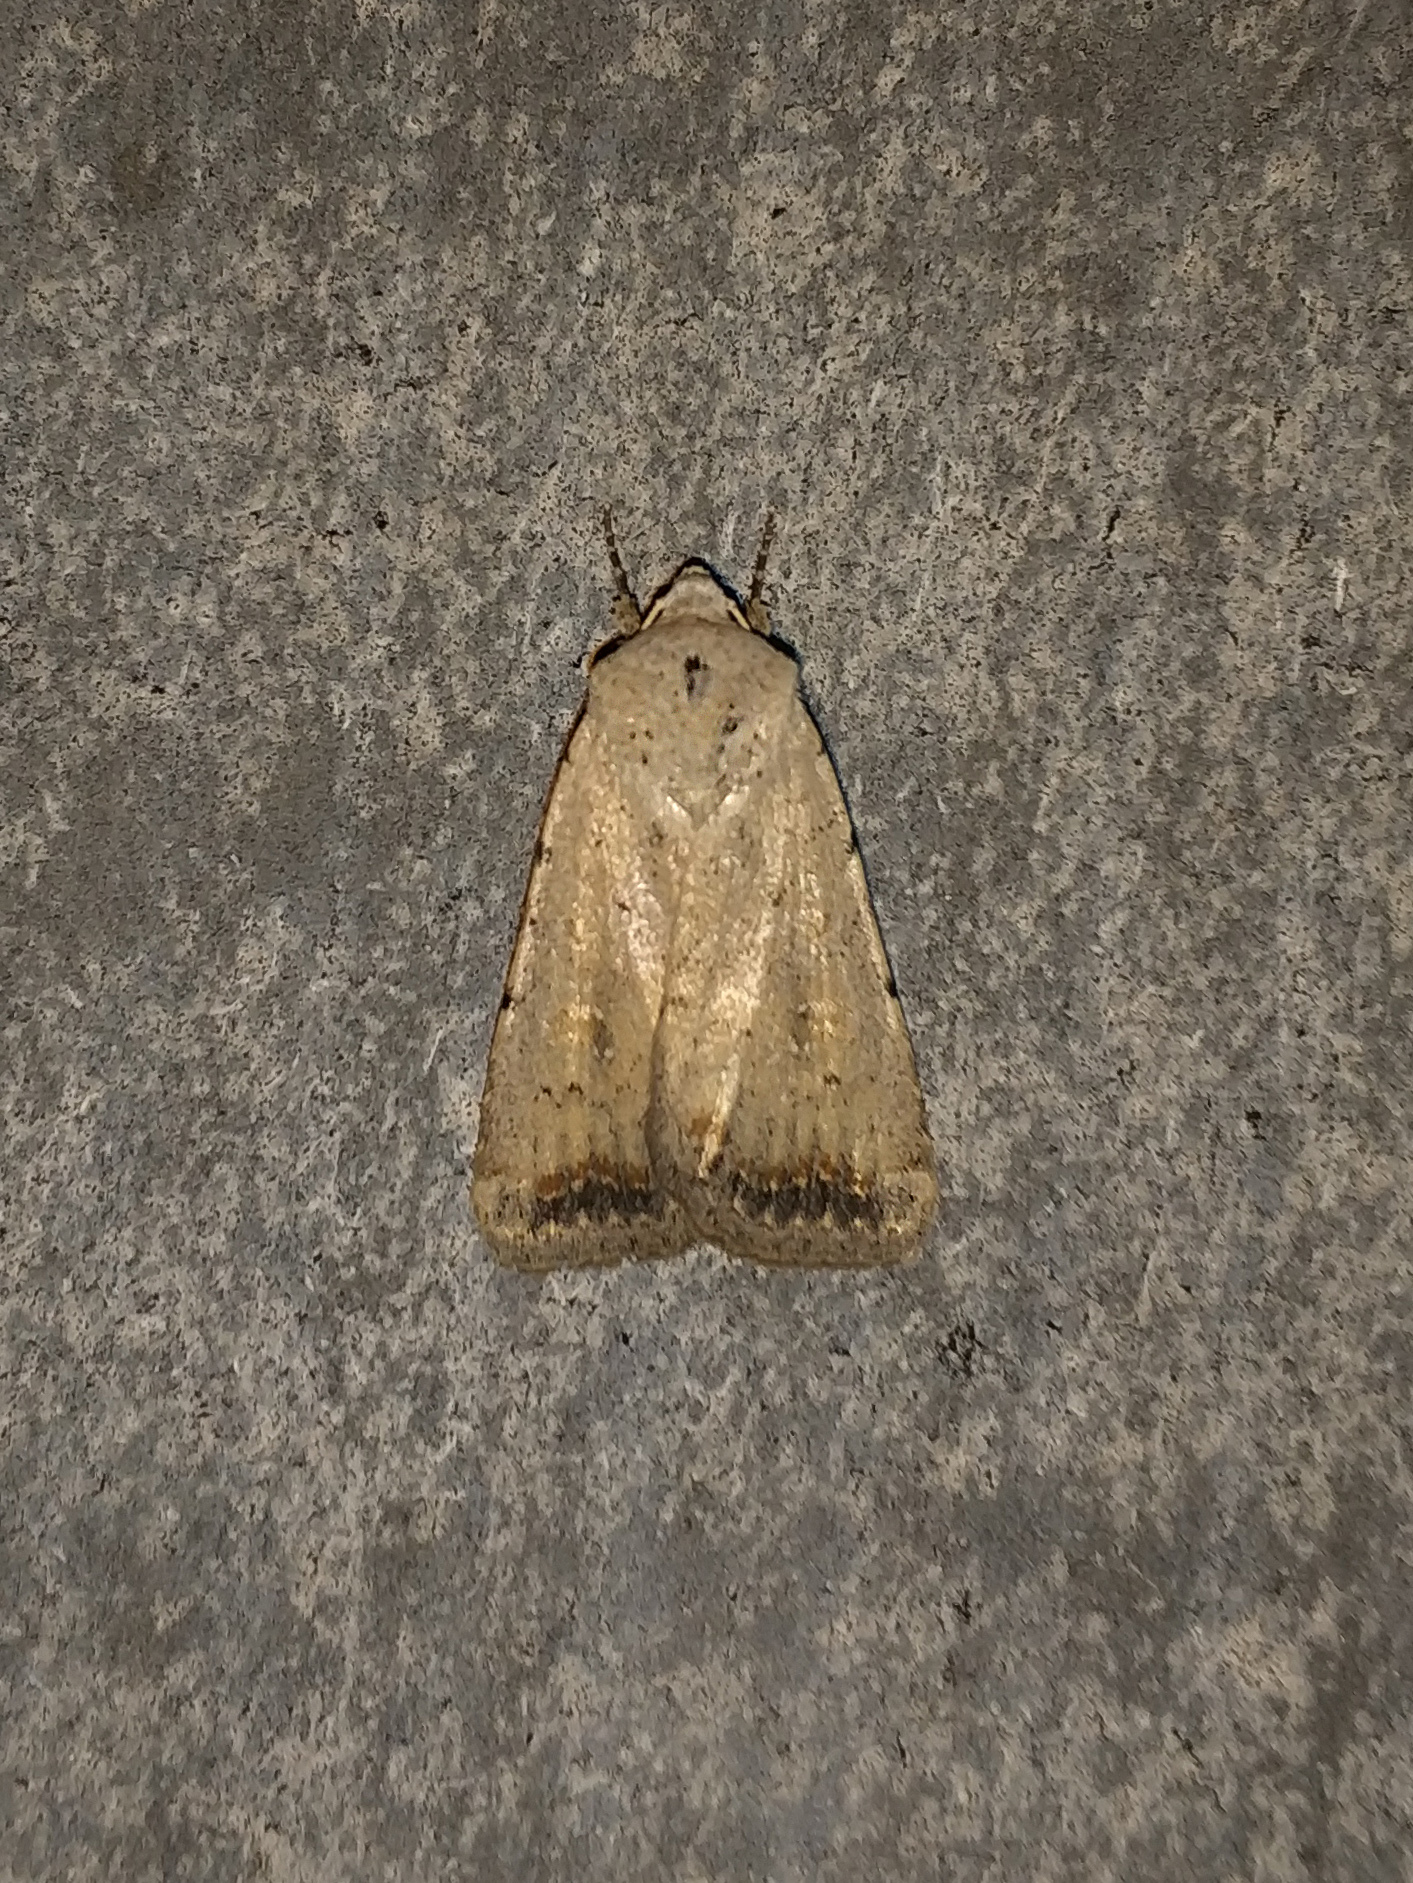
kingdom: Animalia
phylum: Arthropoda
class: Insecta
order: Lepidoptera
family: Noctuidae
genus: Caradrina
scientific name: Caradrina albina
